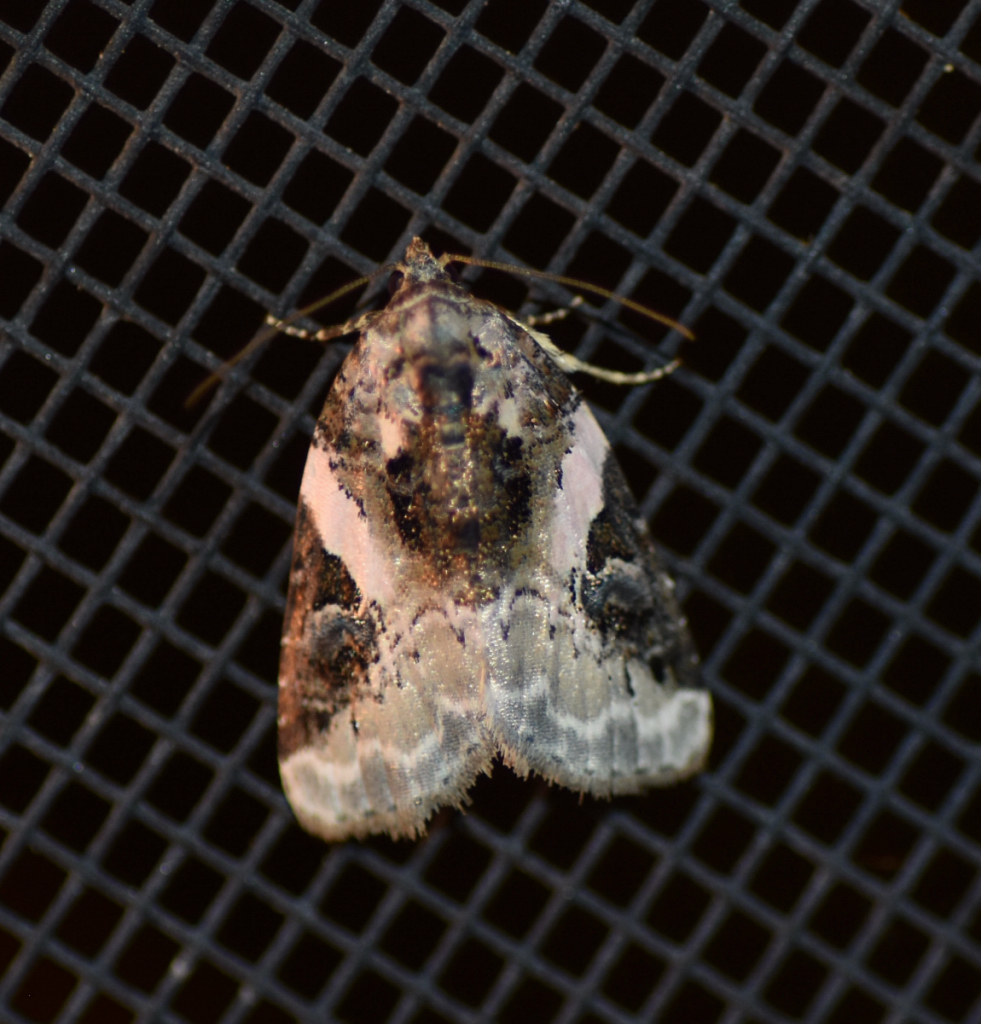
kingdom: Animalia
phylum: Arthropoda
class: Insecta
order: Lepidoptera
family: Noctuidae
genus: Pseudeustrotia
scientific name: Pseudeustrotia carneola
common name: Pink-barred lithacodia moth
